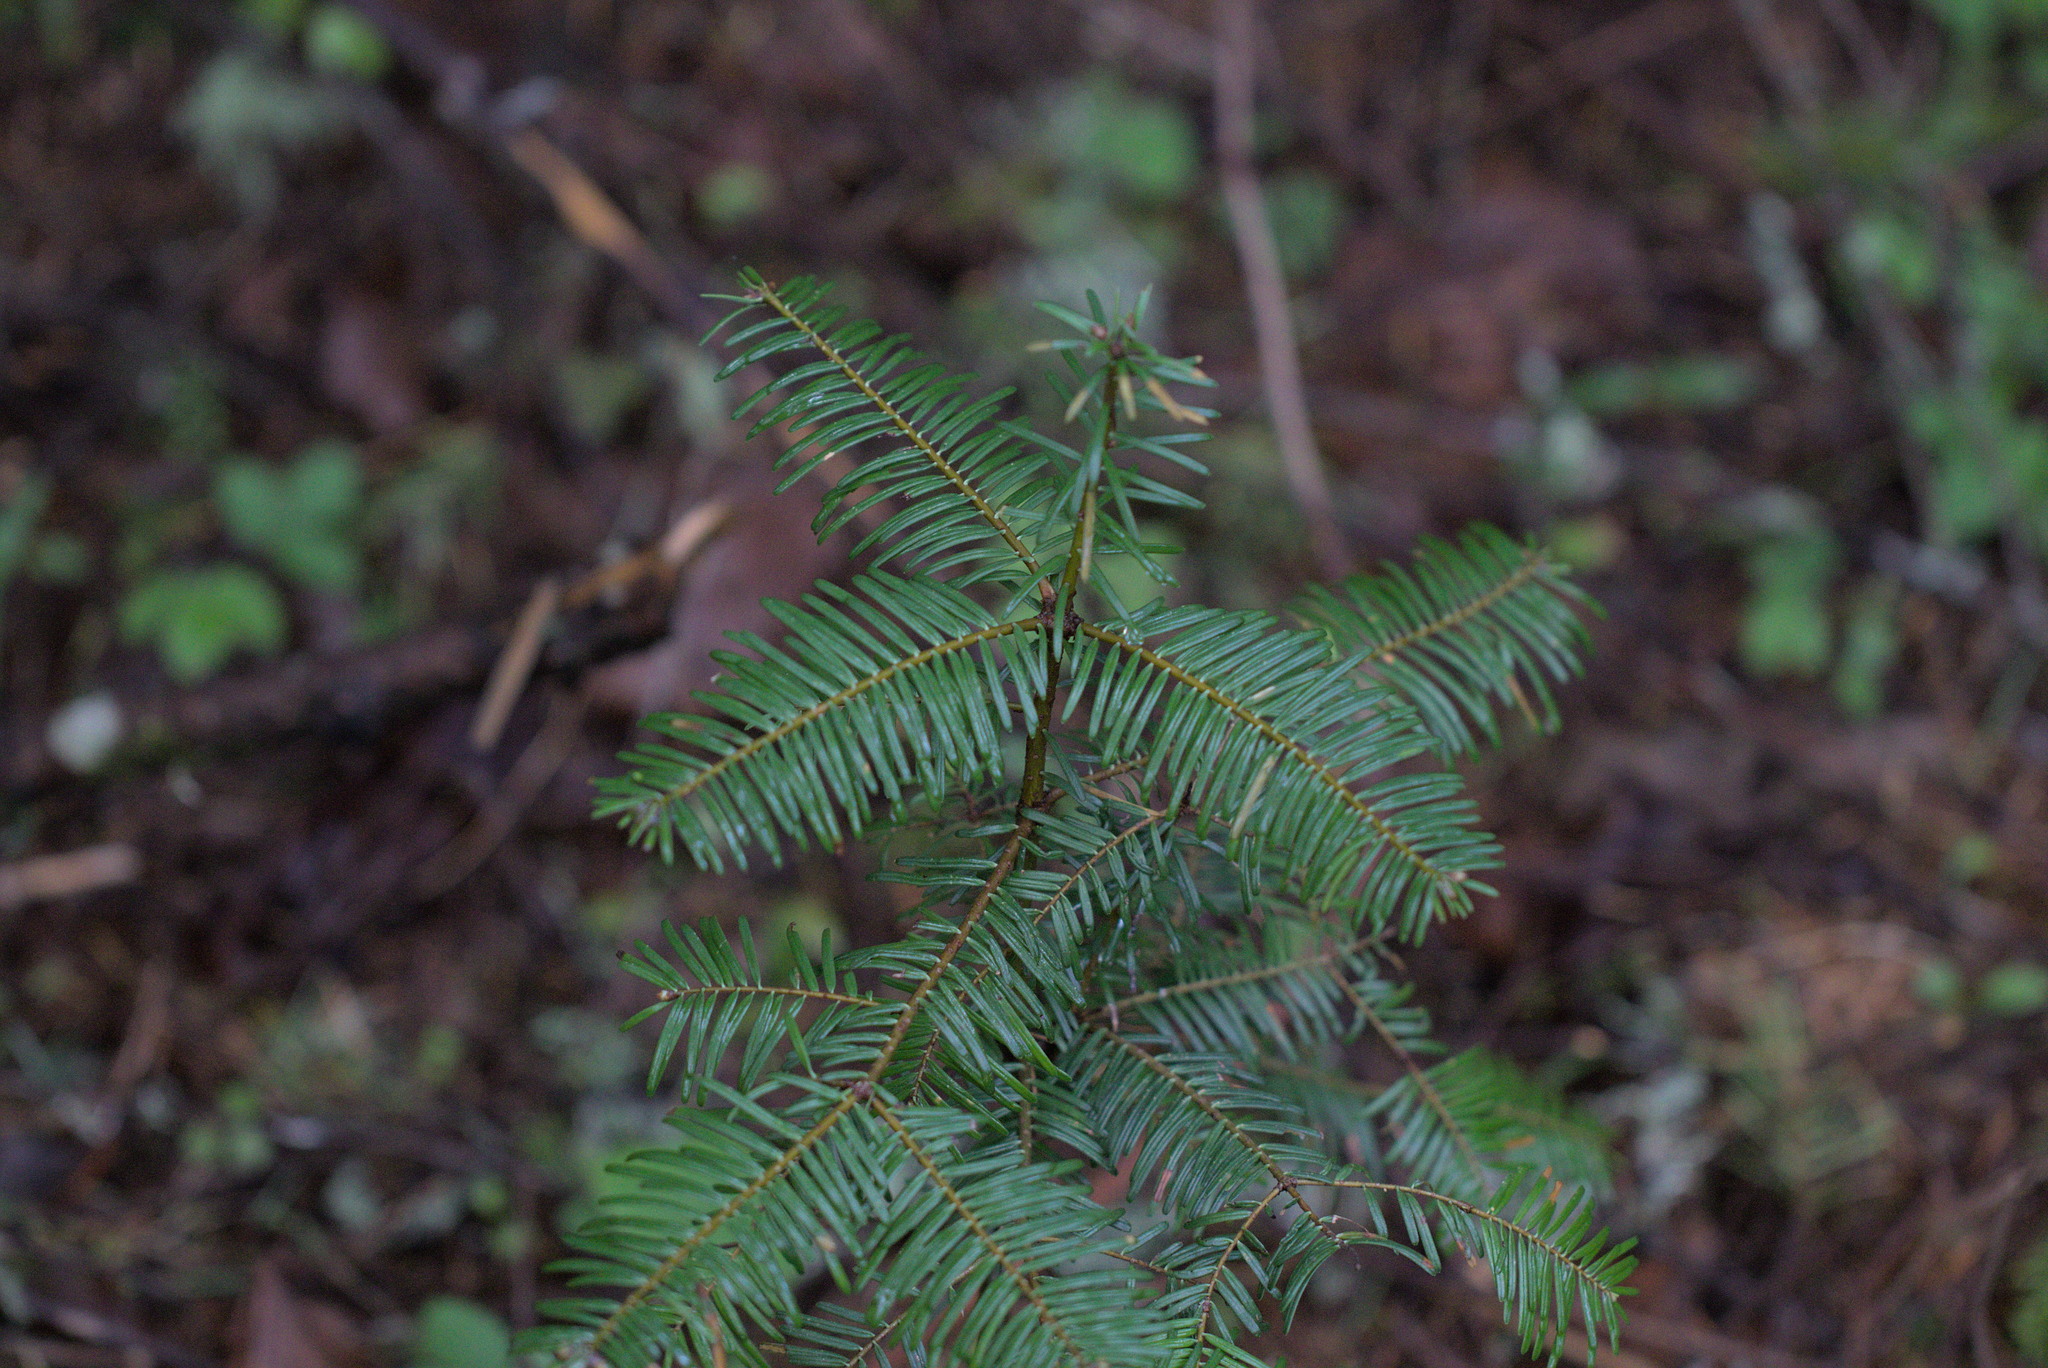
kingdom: Plantae
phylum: Tracheophyta
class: Pinopsida
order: Pinales
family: Pinaceae
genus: Abies
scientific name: Abies grandis
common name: Giant fir
